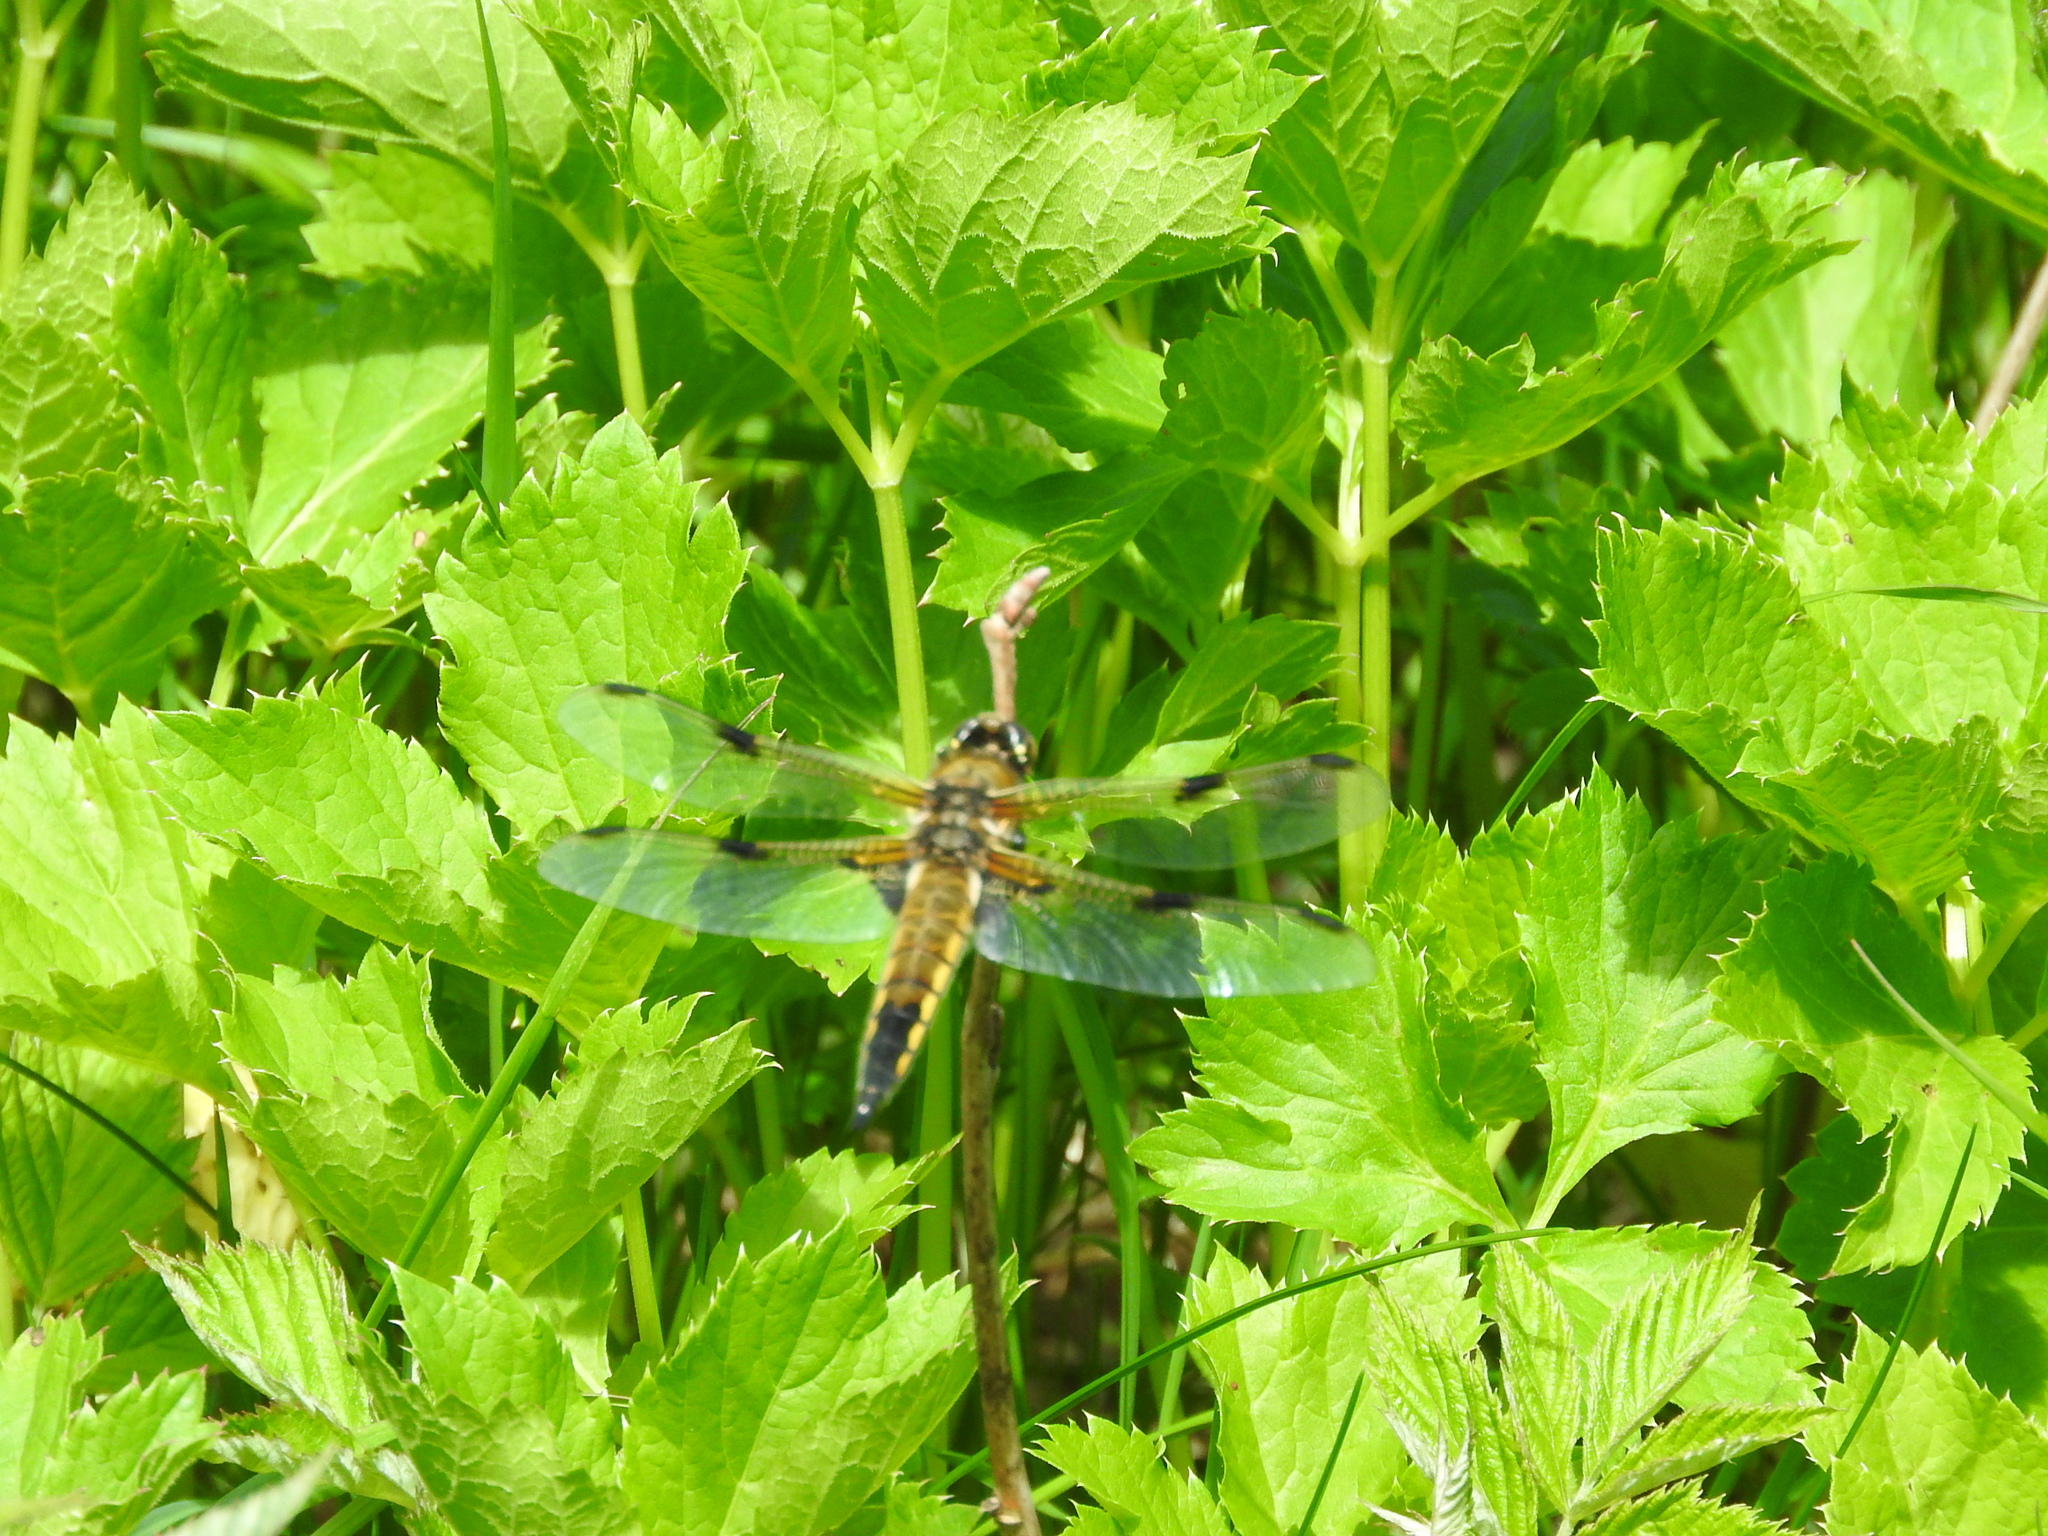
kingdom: Animalia
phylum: Arthropoda
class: Insecta
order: Odonata
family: Libellulidae
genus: Libellula
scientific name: Libellula quadrimaculata
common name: Four-spotted chaser
